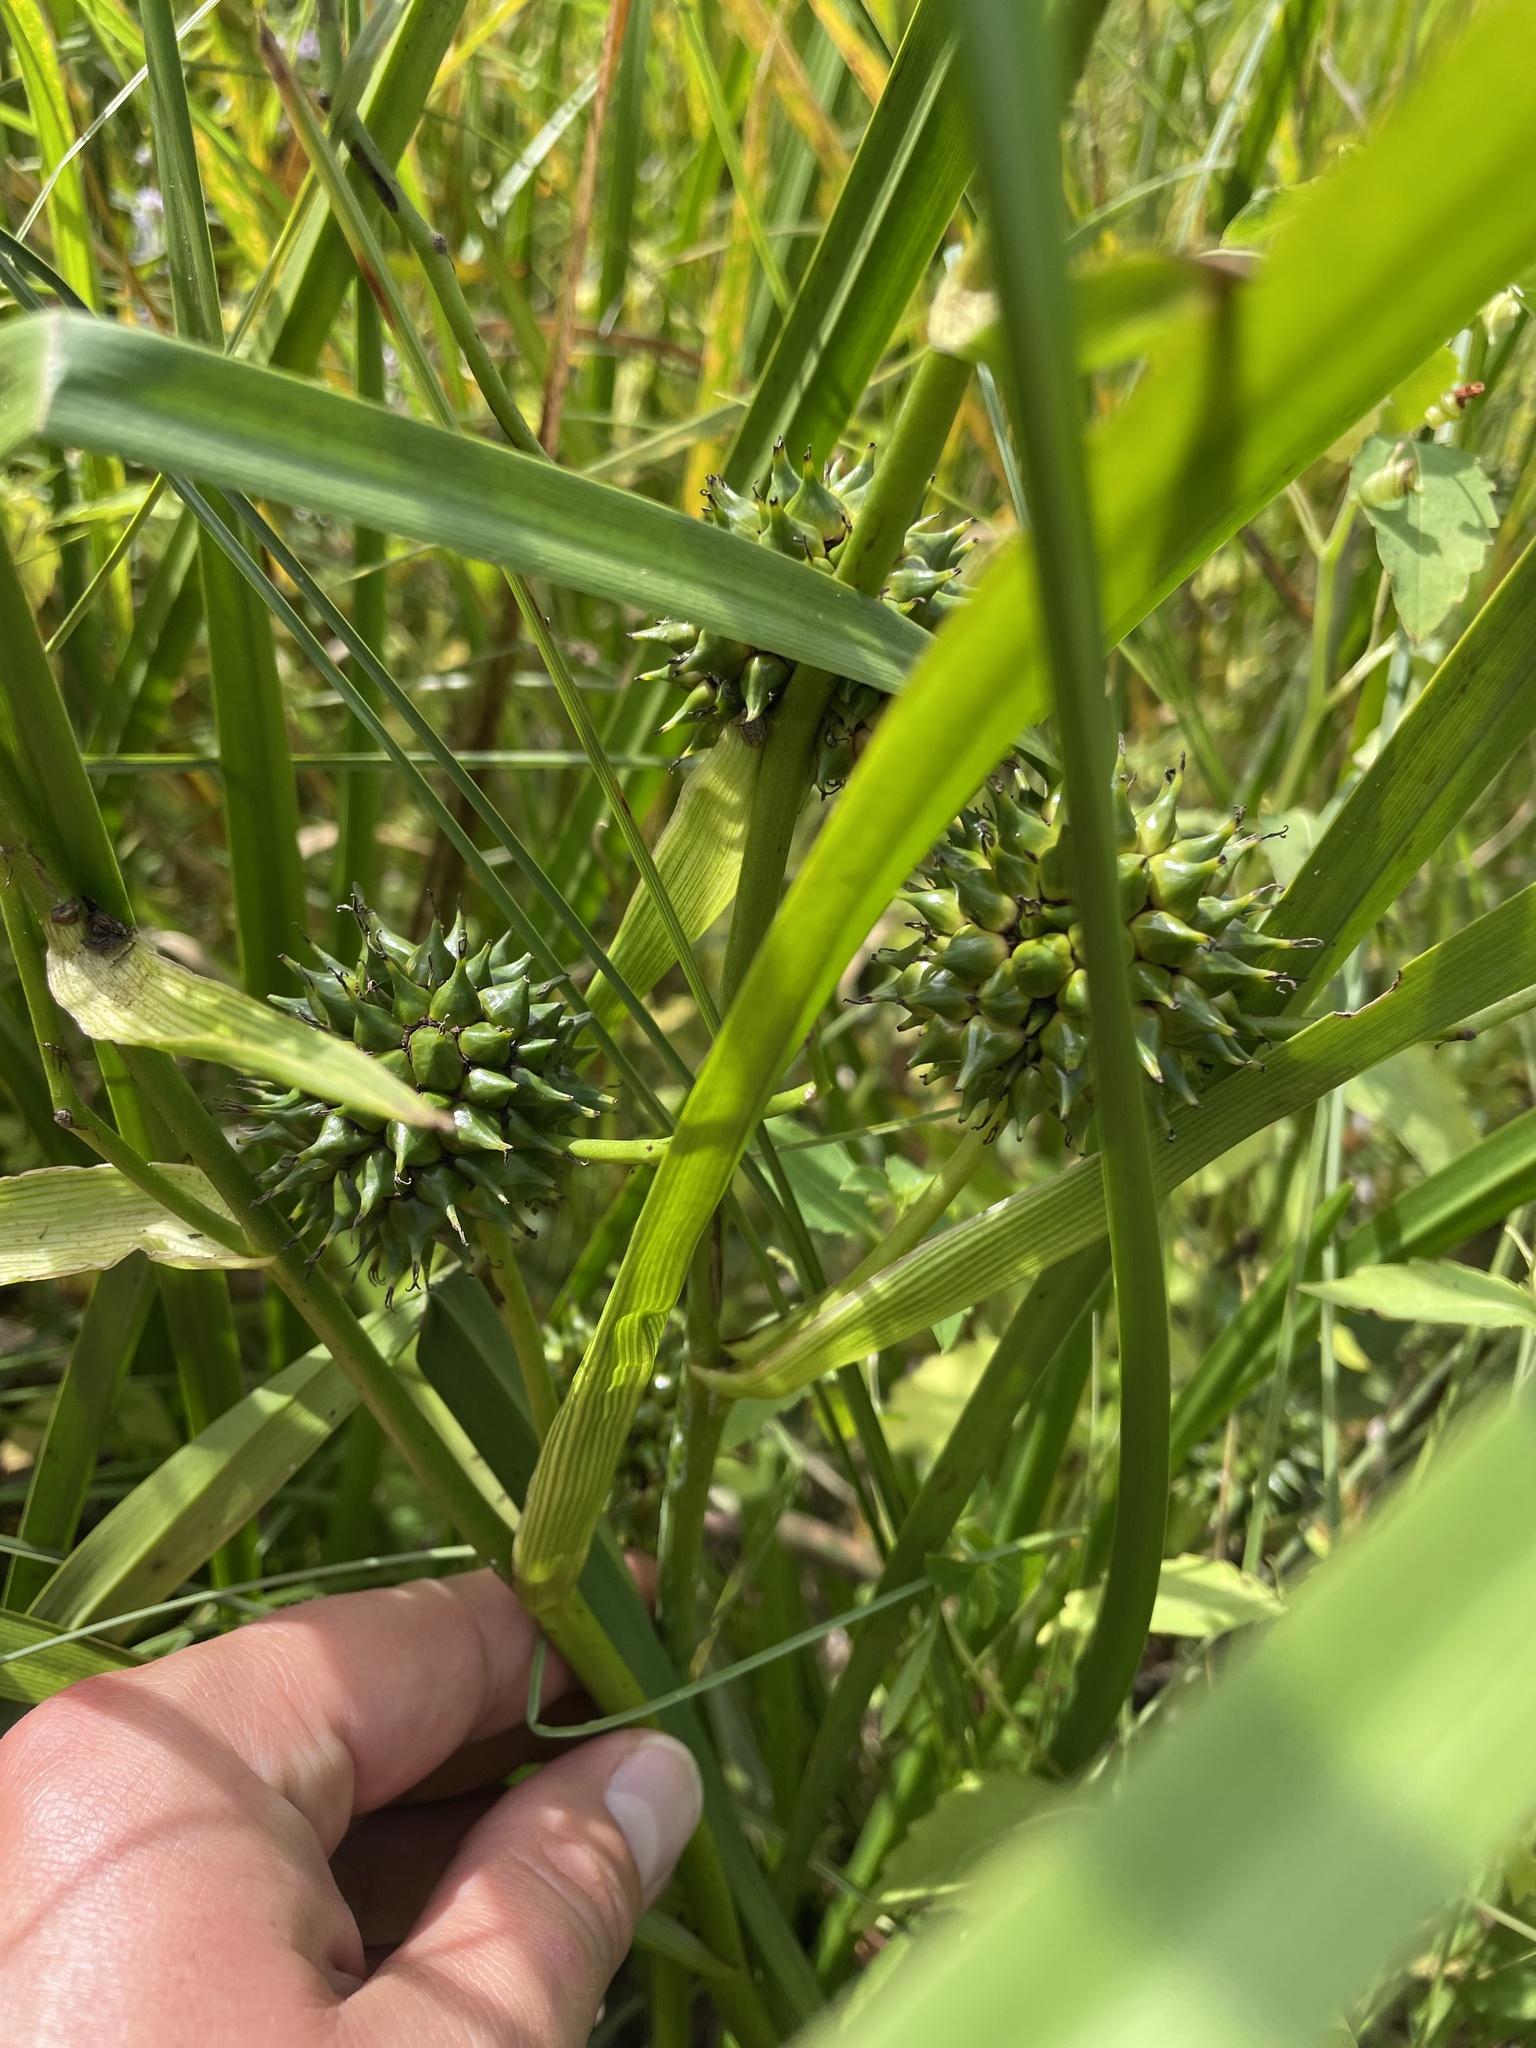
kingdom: Plantae
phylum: Tracheophyta
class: Liliopsida
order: Poales
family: Typhaceae
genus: Sparganium
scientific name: Sparganium eurycarpum
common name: Broad-fruited burreed
